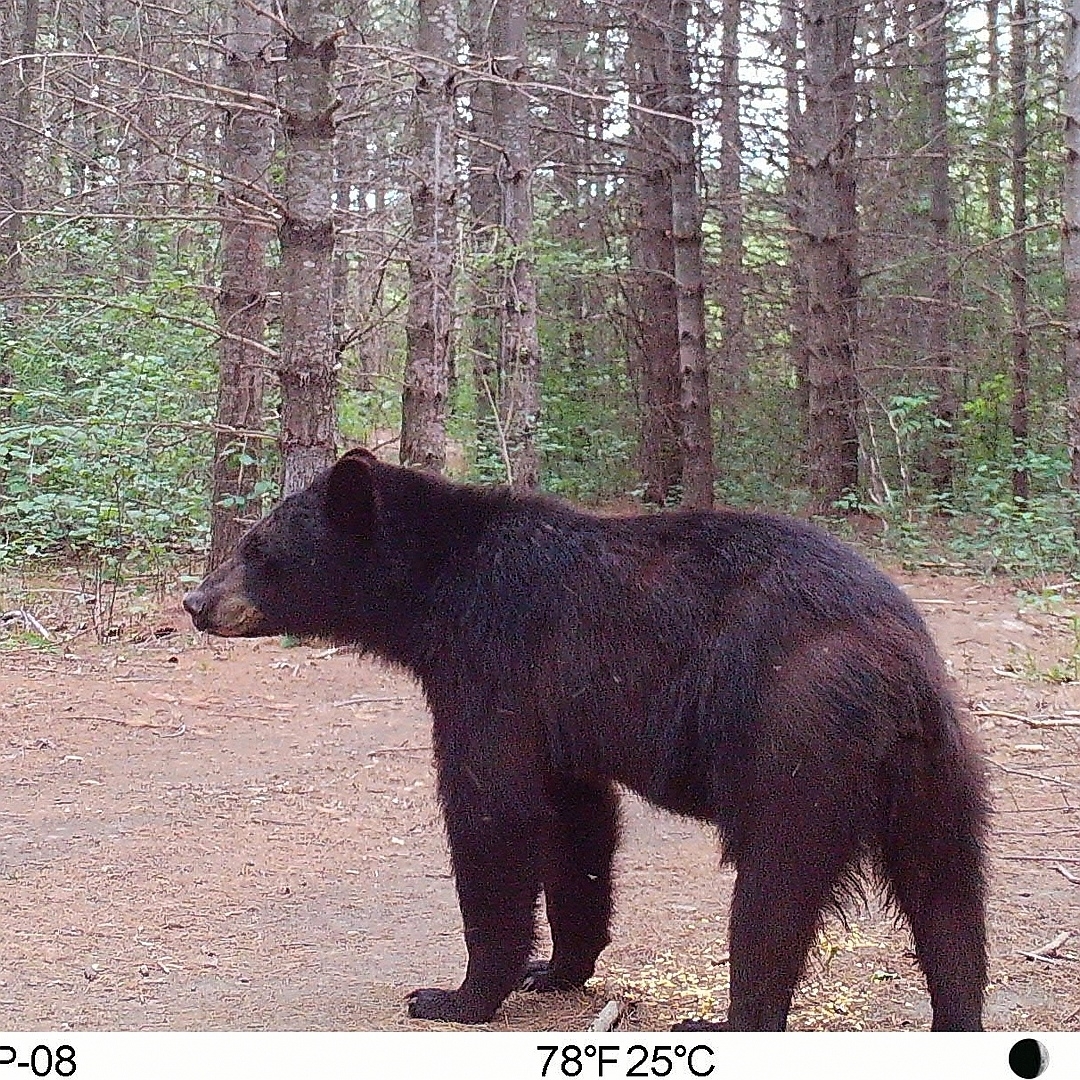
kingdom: Animalia
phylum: Chordata
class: Mammalia
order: Carnivora
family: Ursidae
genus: Ursus
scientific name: Ursus americanus
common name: American black bear
